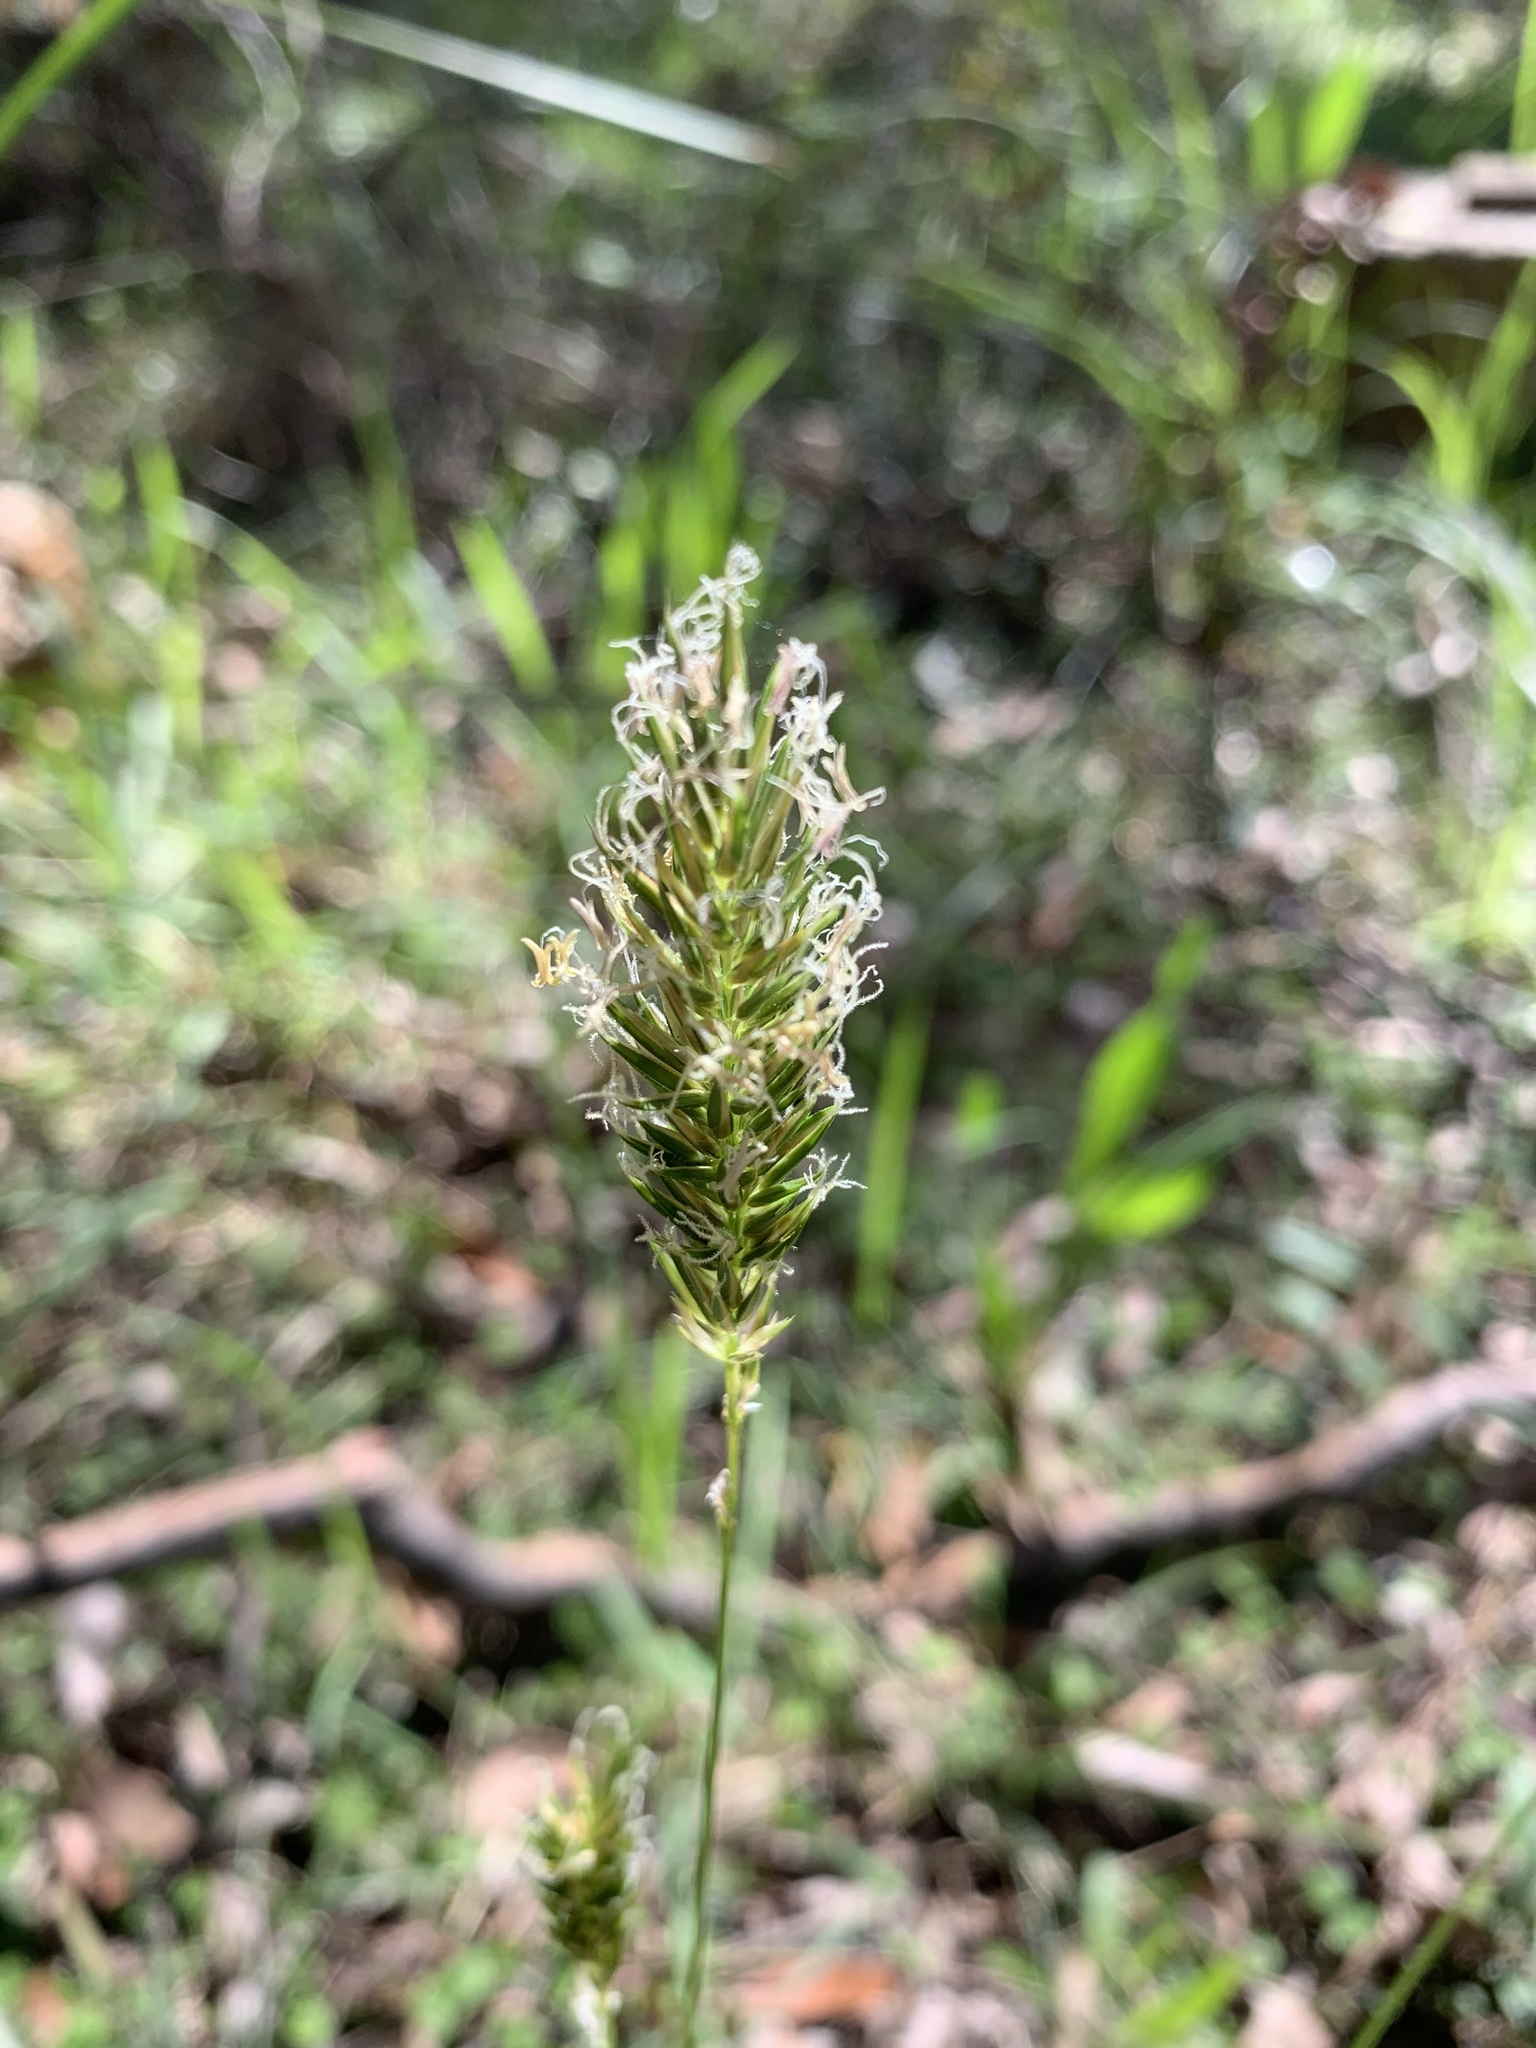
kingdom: Plantae
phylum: Tracheophyta
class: Liliopsida
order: Poales
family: Poaceae
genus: Anthoxanthum
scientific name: Anthoxanthum odoratum
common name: Sweet vernalgrass
